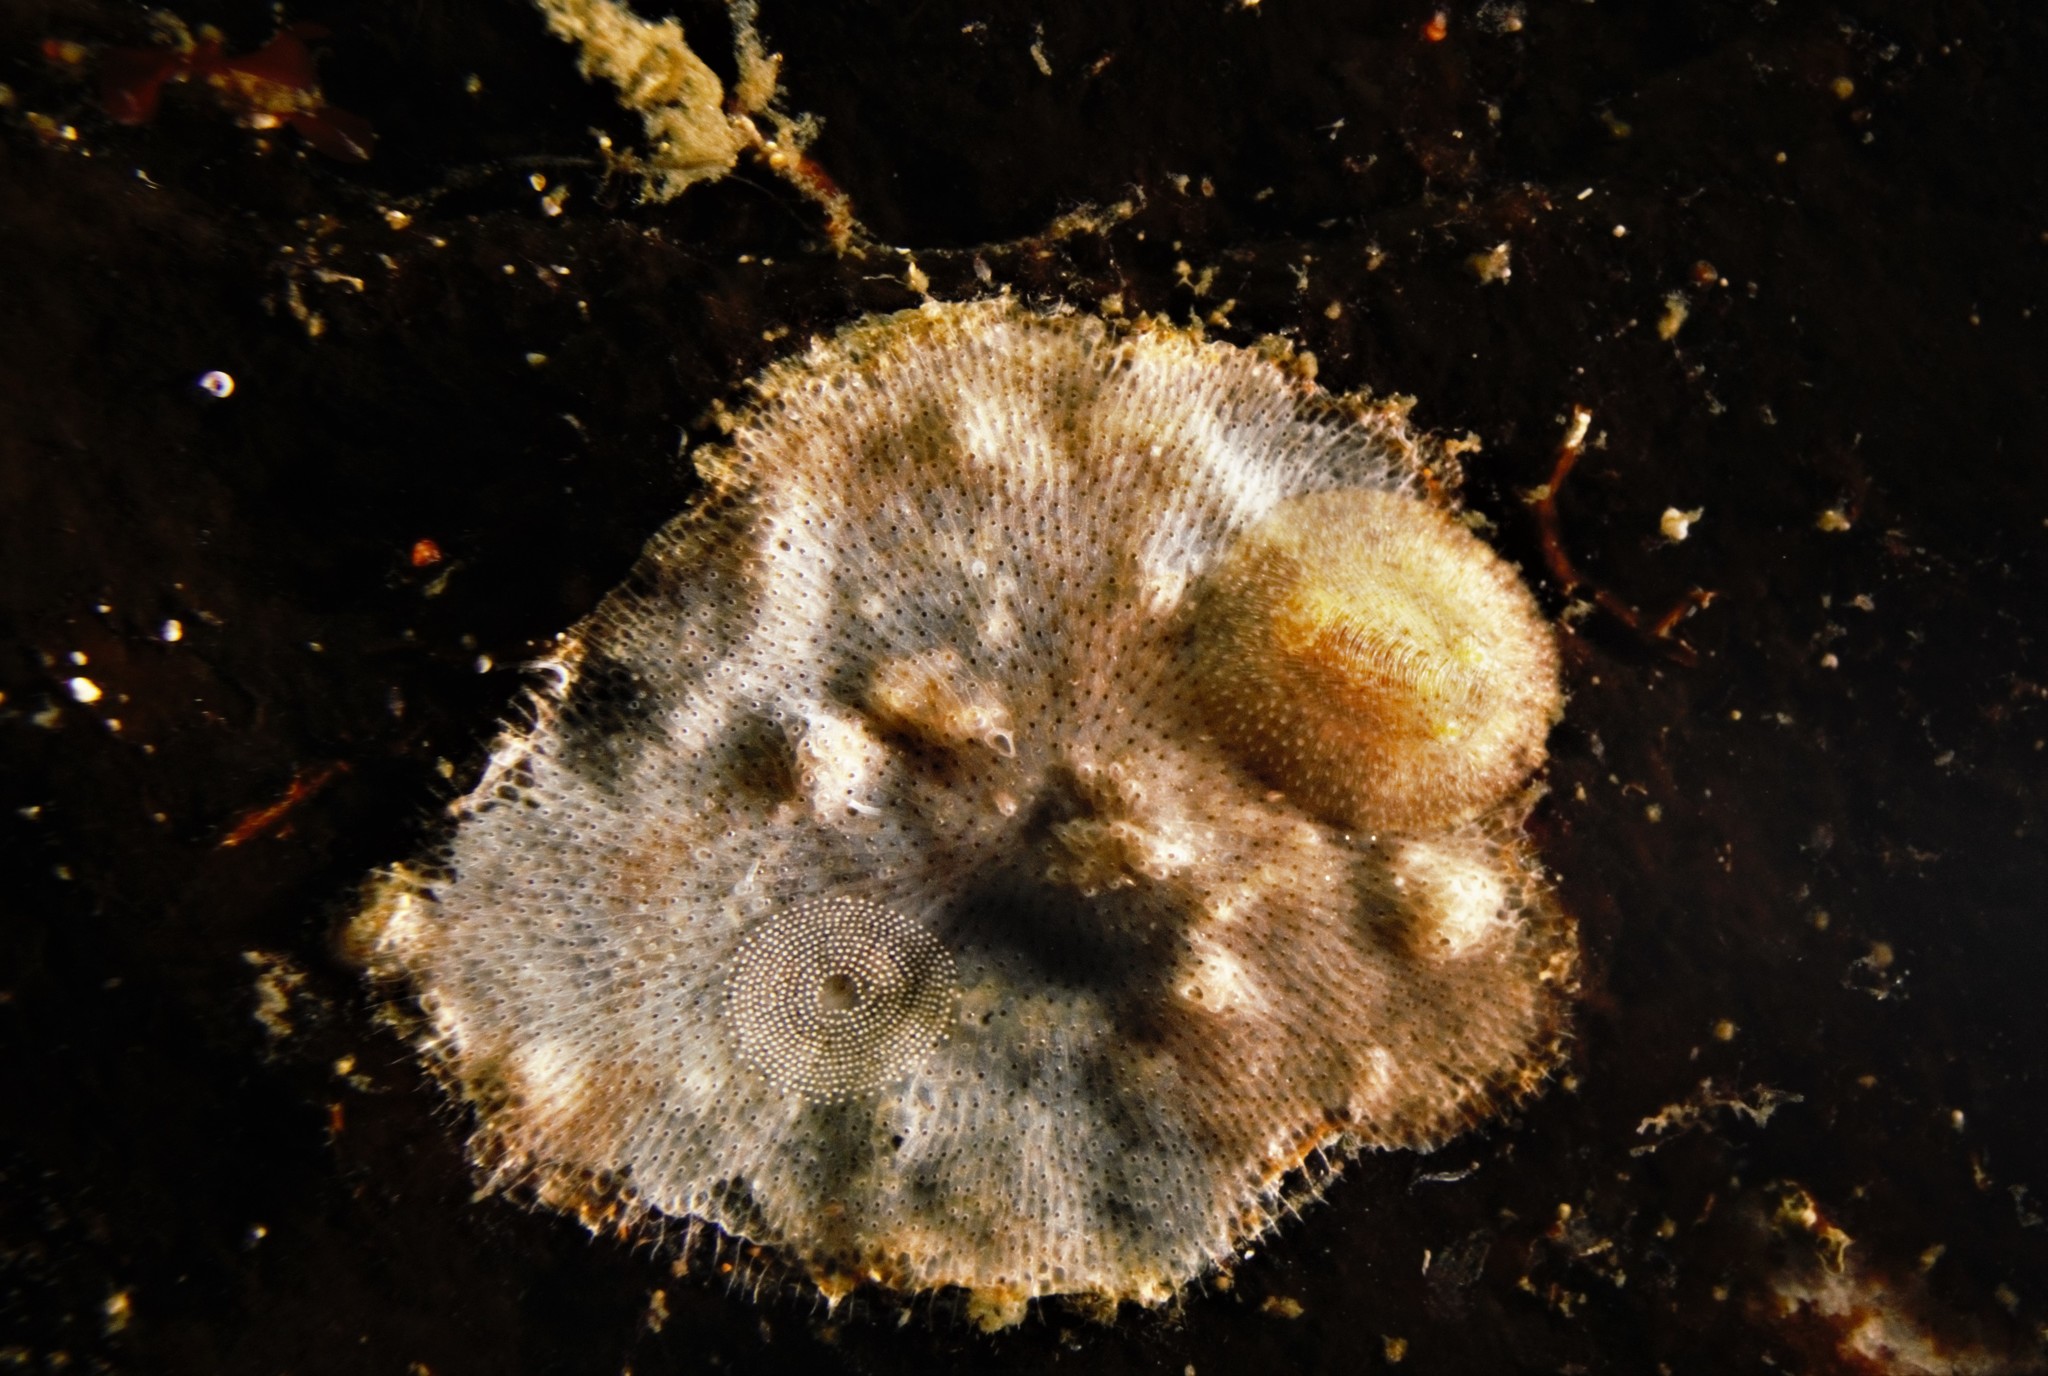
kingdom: Animalia
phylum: Mollusca
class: Gastropoda
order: Nudibranchia
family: Onchidorididae
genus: Idaliadoris
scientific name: Idaliadoris depressa
